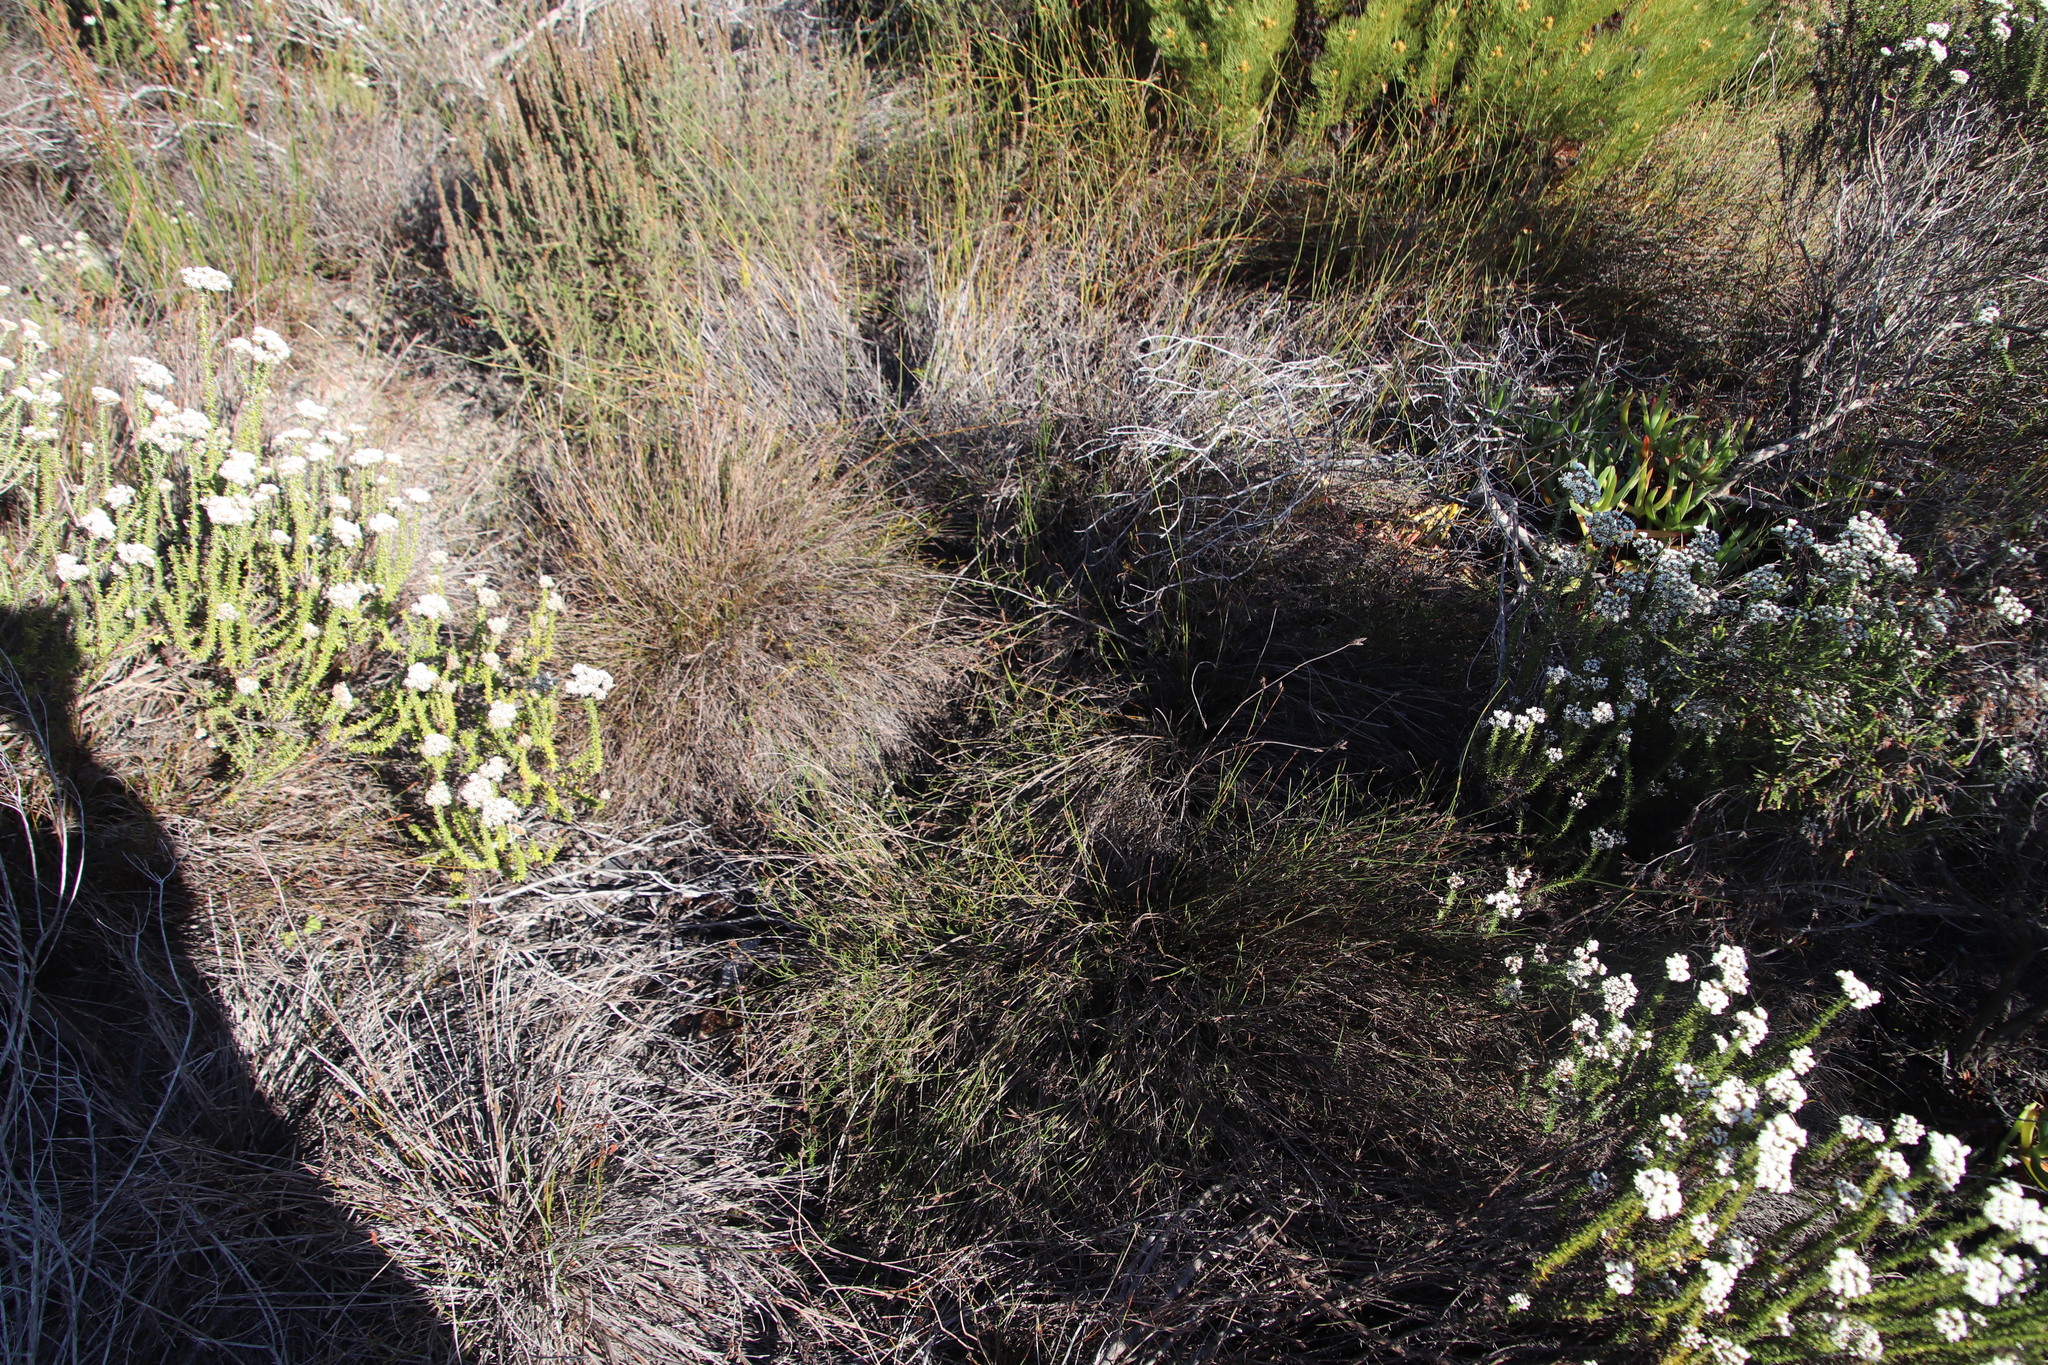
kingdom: Plantae
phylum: Tracheophyta
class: Liliopsida
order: Poales
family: Restionaceae
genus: Restio
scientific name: Restio capensis
